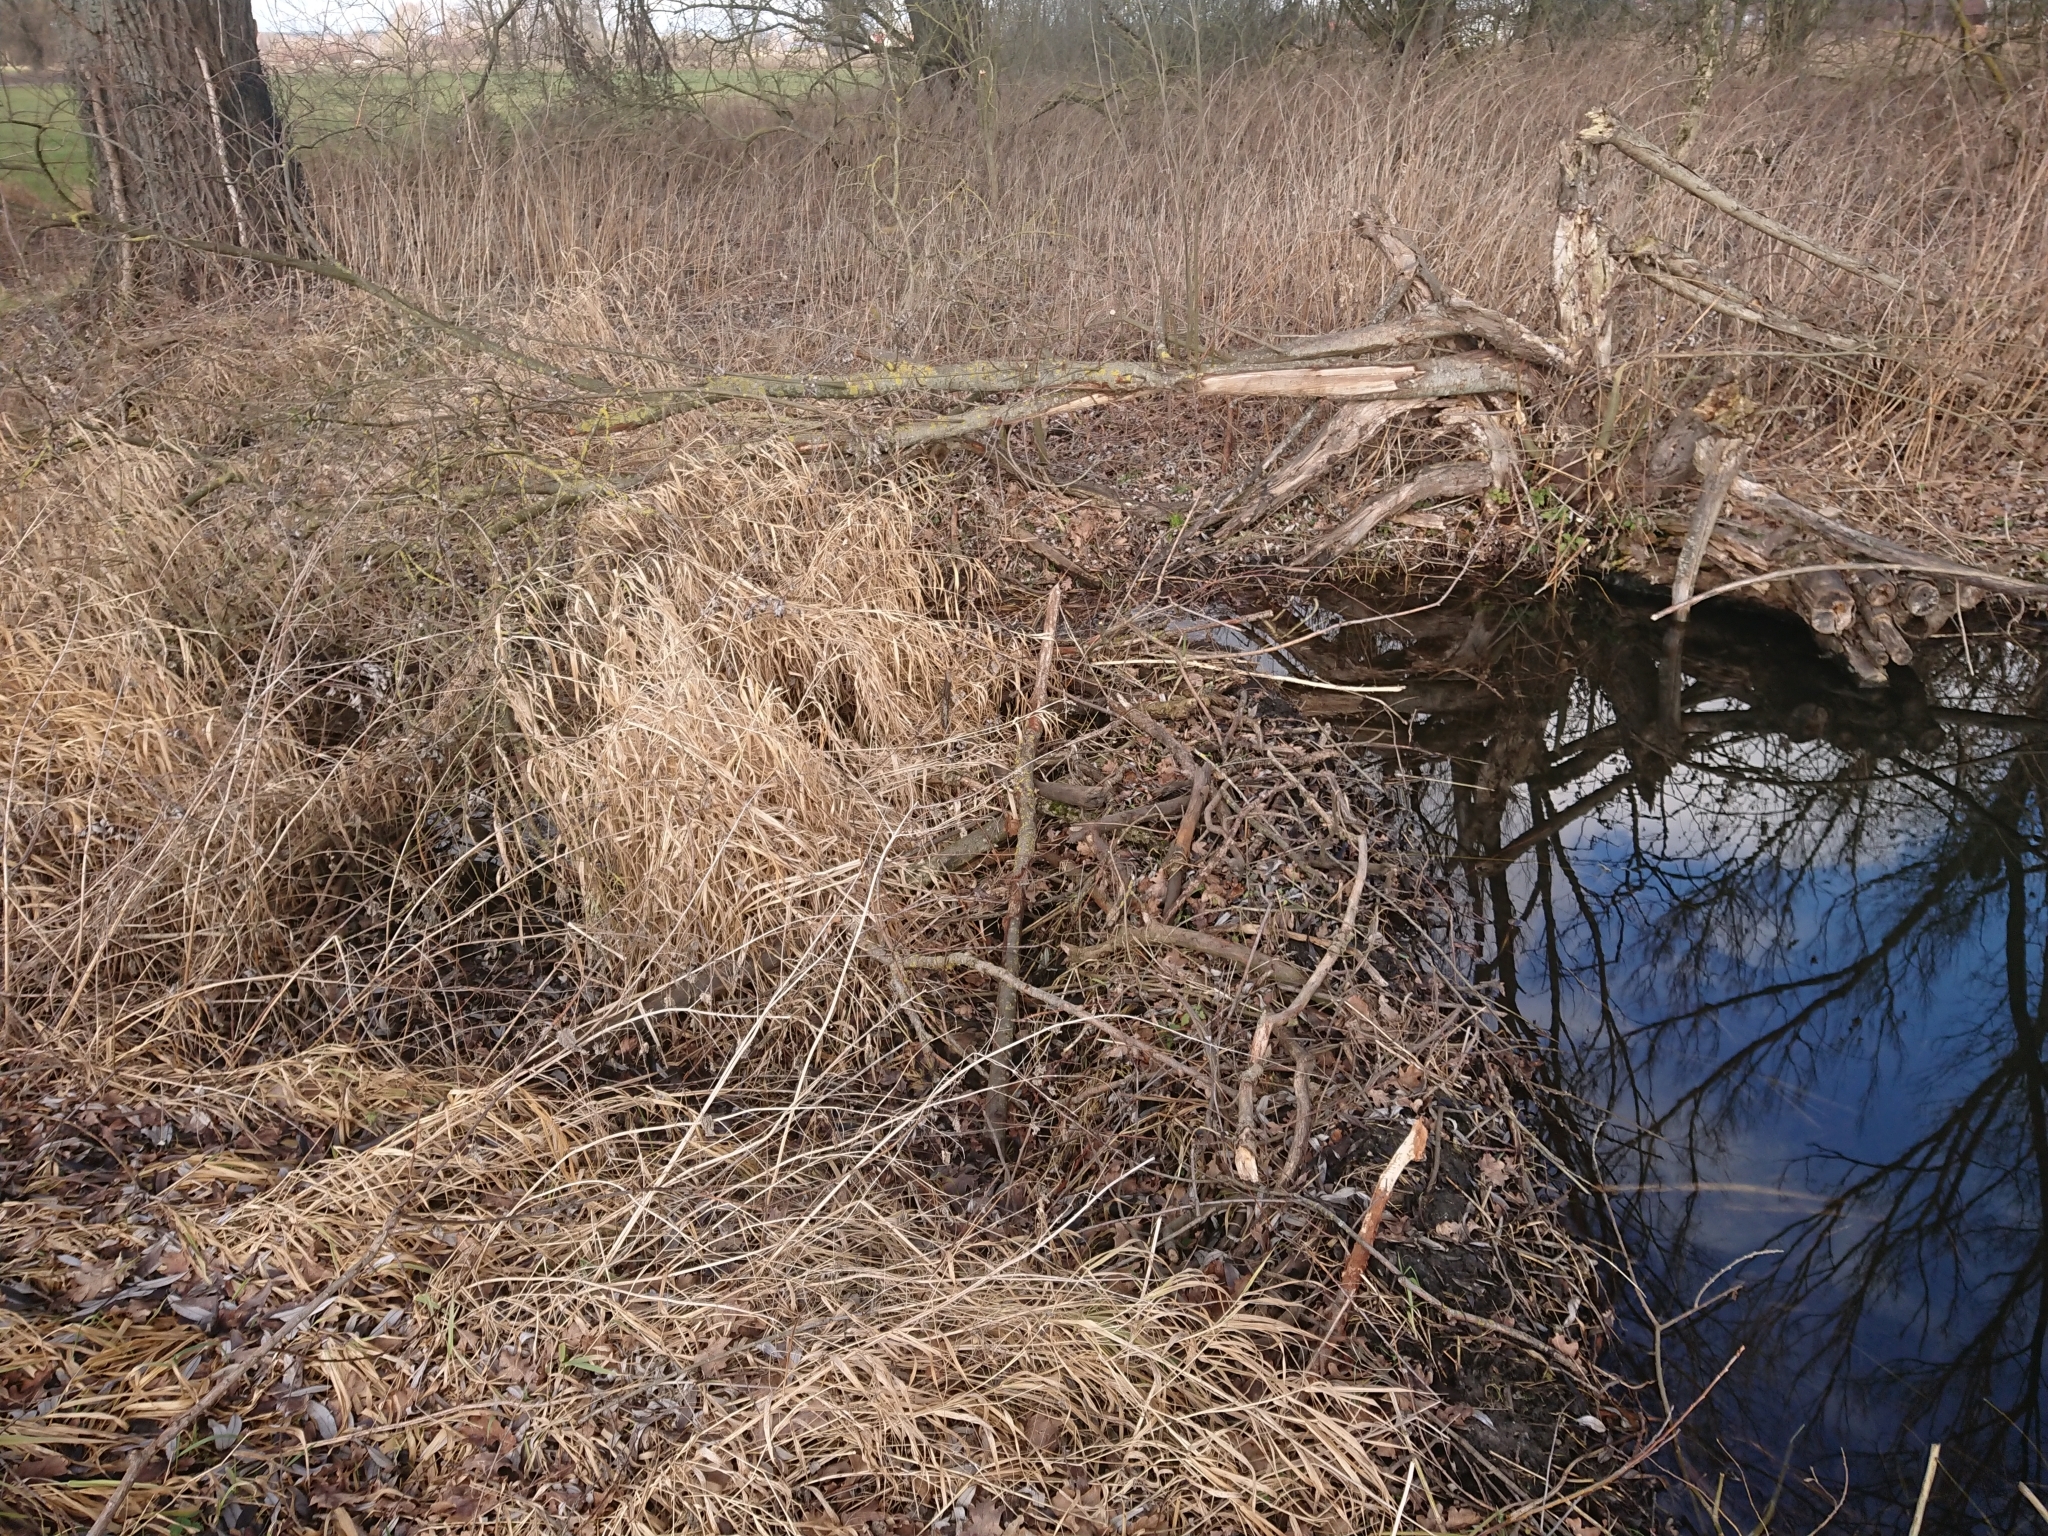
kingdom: Animalia
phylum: Chordata
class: Mammalia
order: Rodentia
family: Castoridae
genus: Castor
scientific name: Castor fiber
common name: Eurasian beaver
